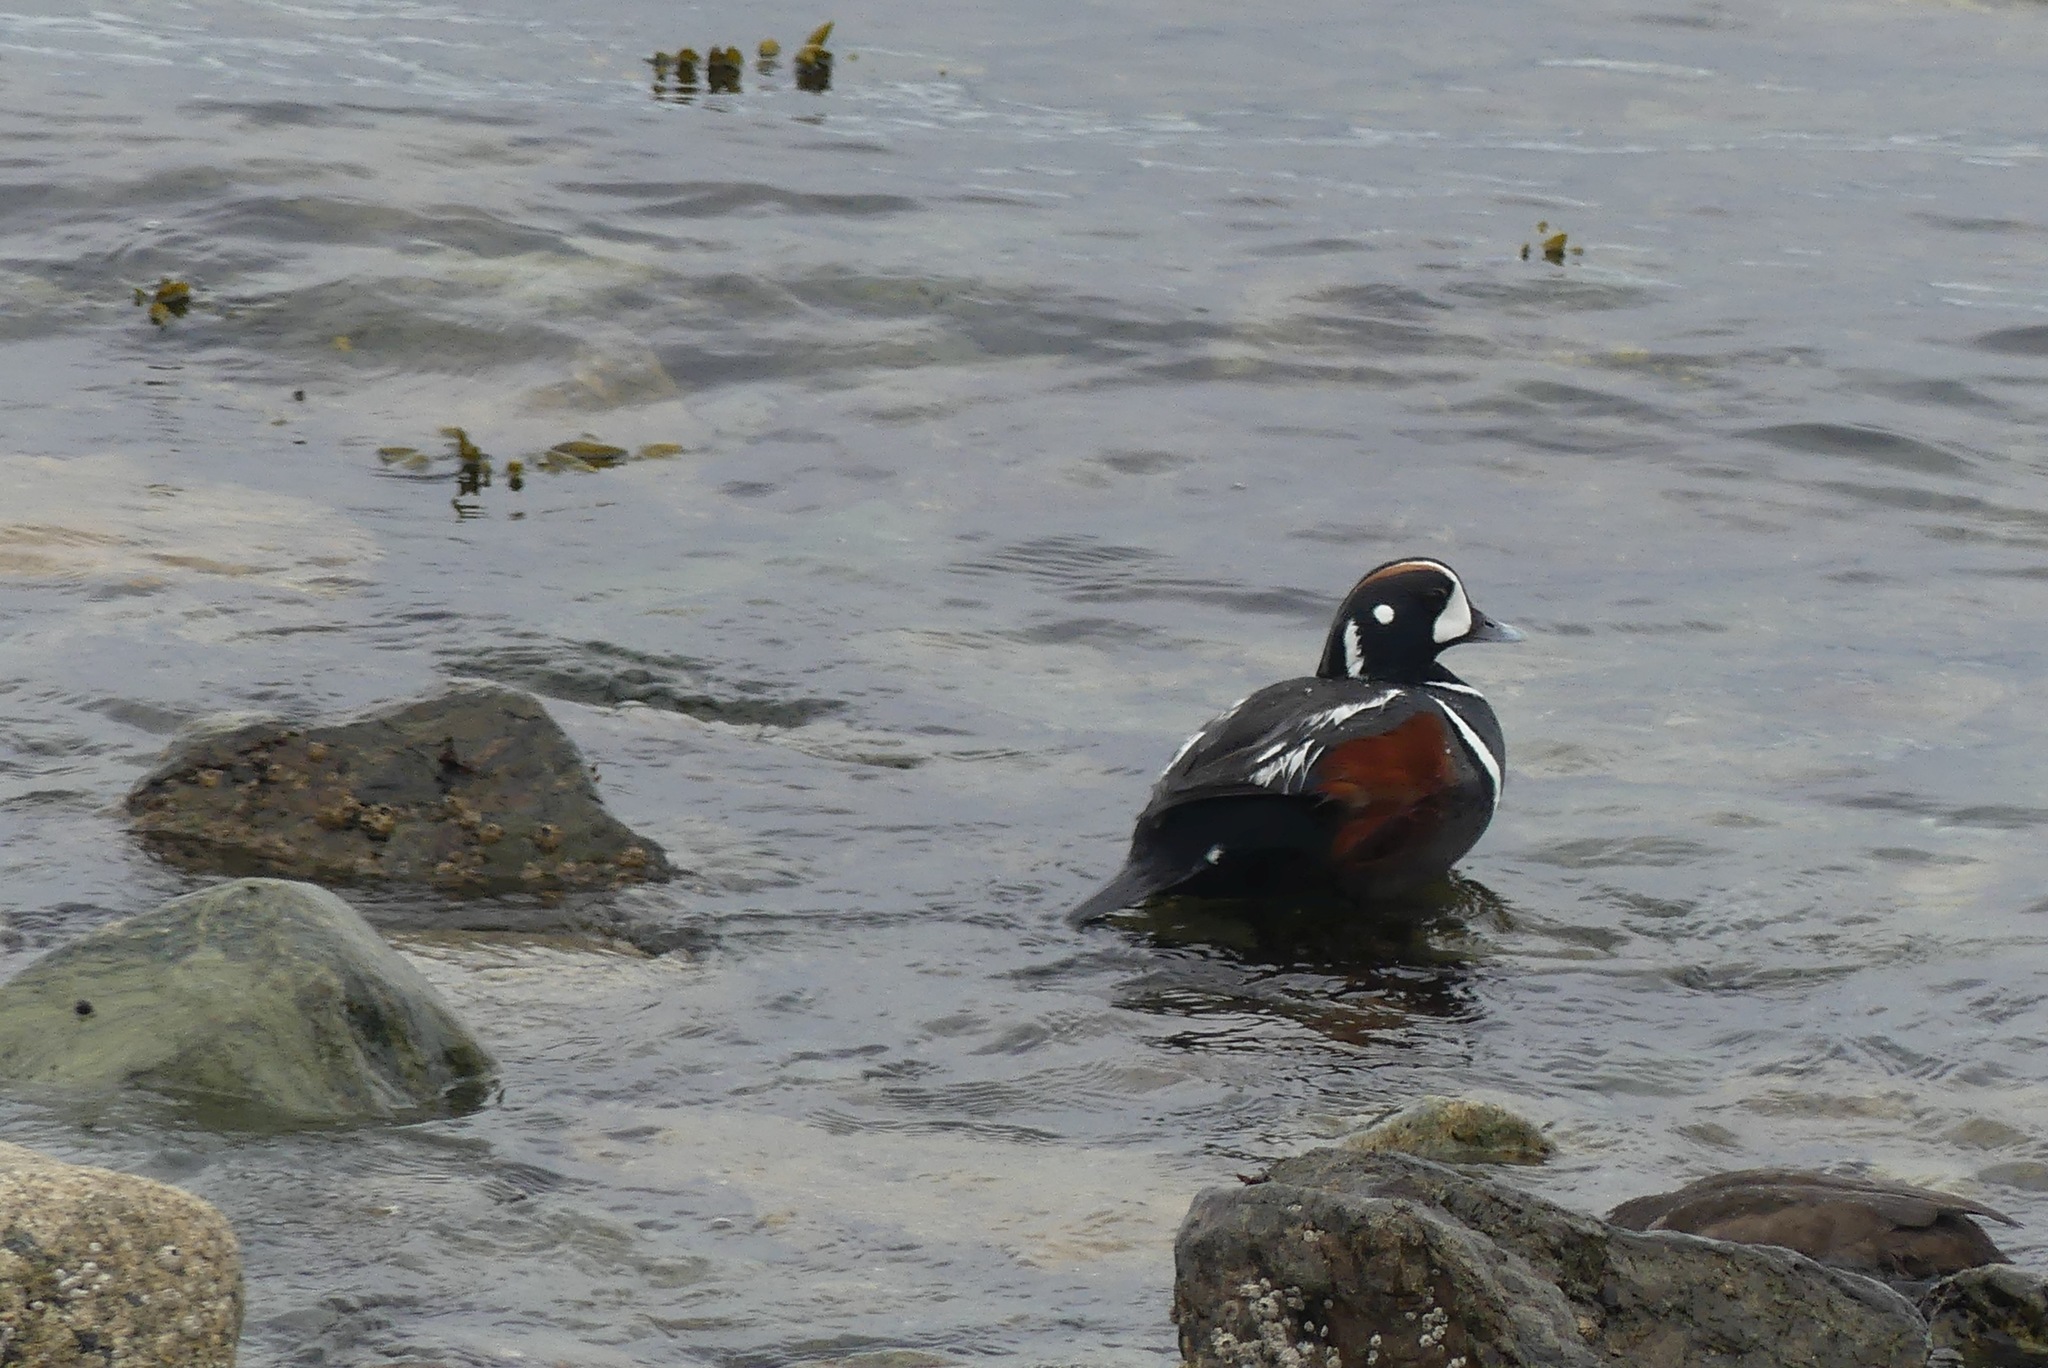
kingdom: Animalia
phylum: Chordata
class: Aves
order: Anseriformes
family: Anatidae
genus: Histrionicus
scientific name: Histrionicus histrionicus
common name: Harlequin duck
